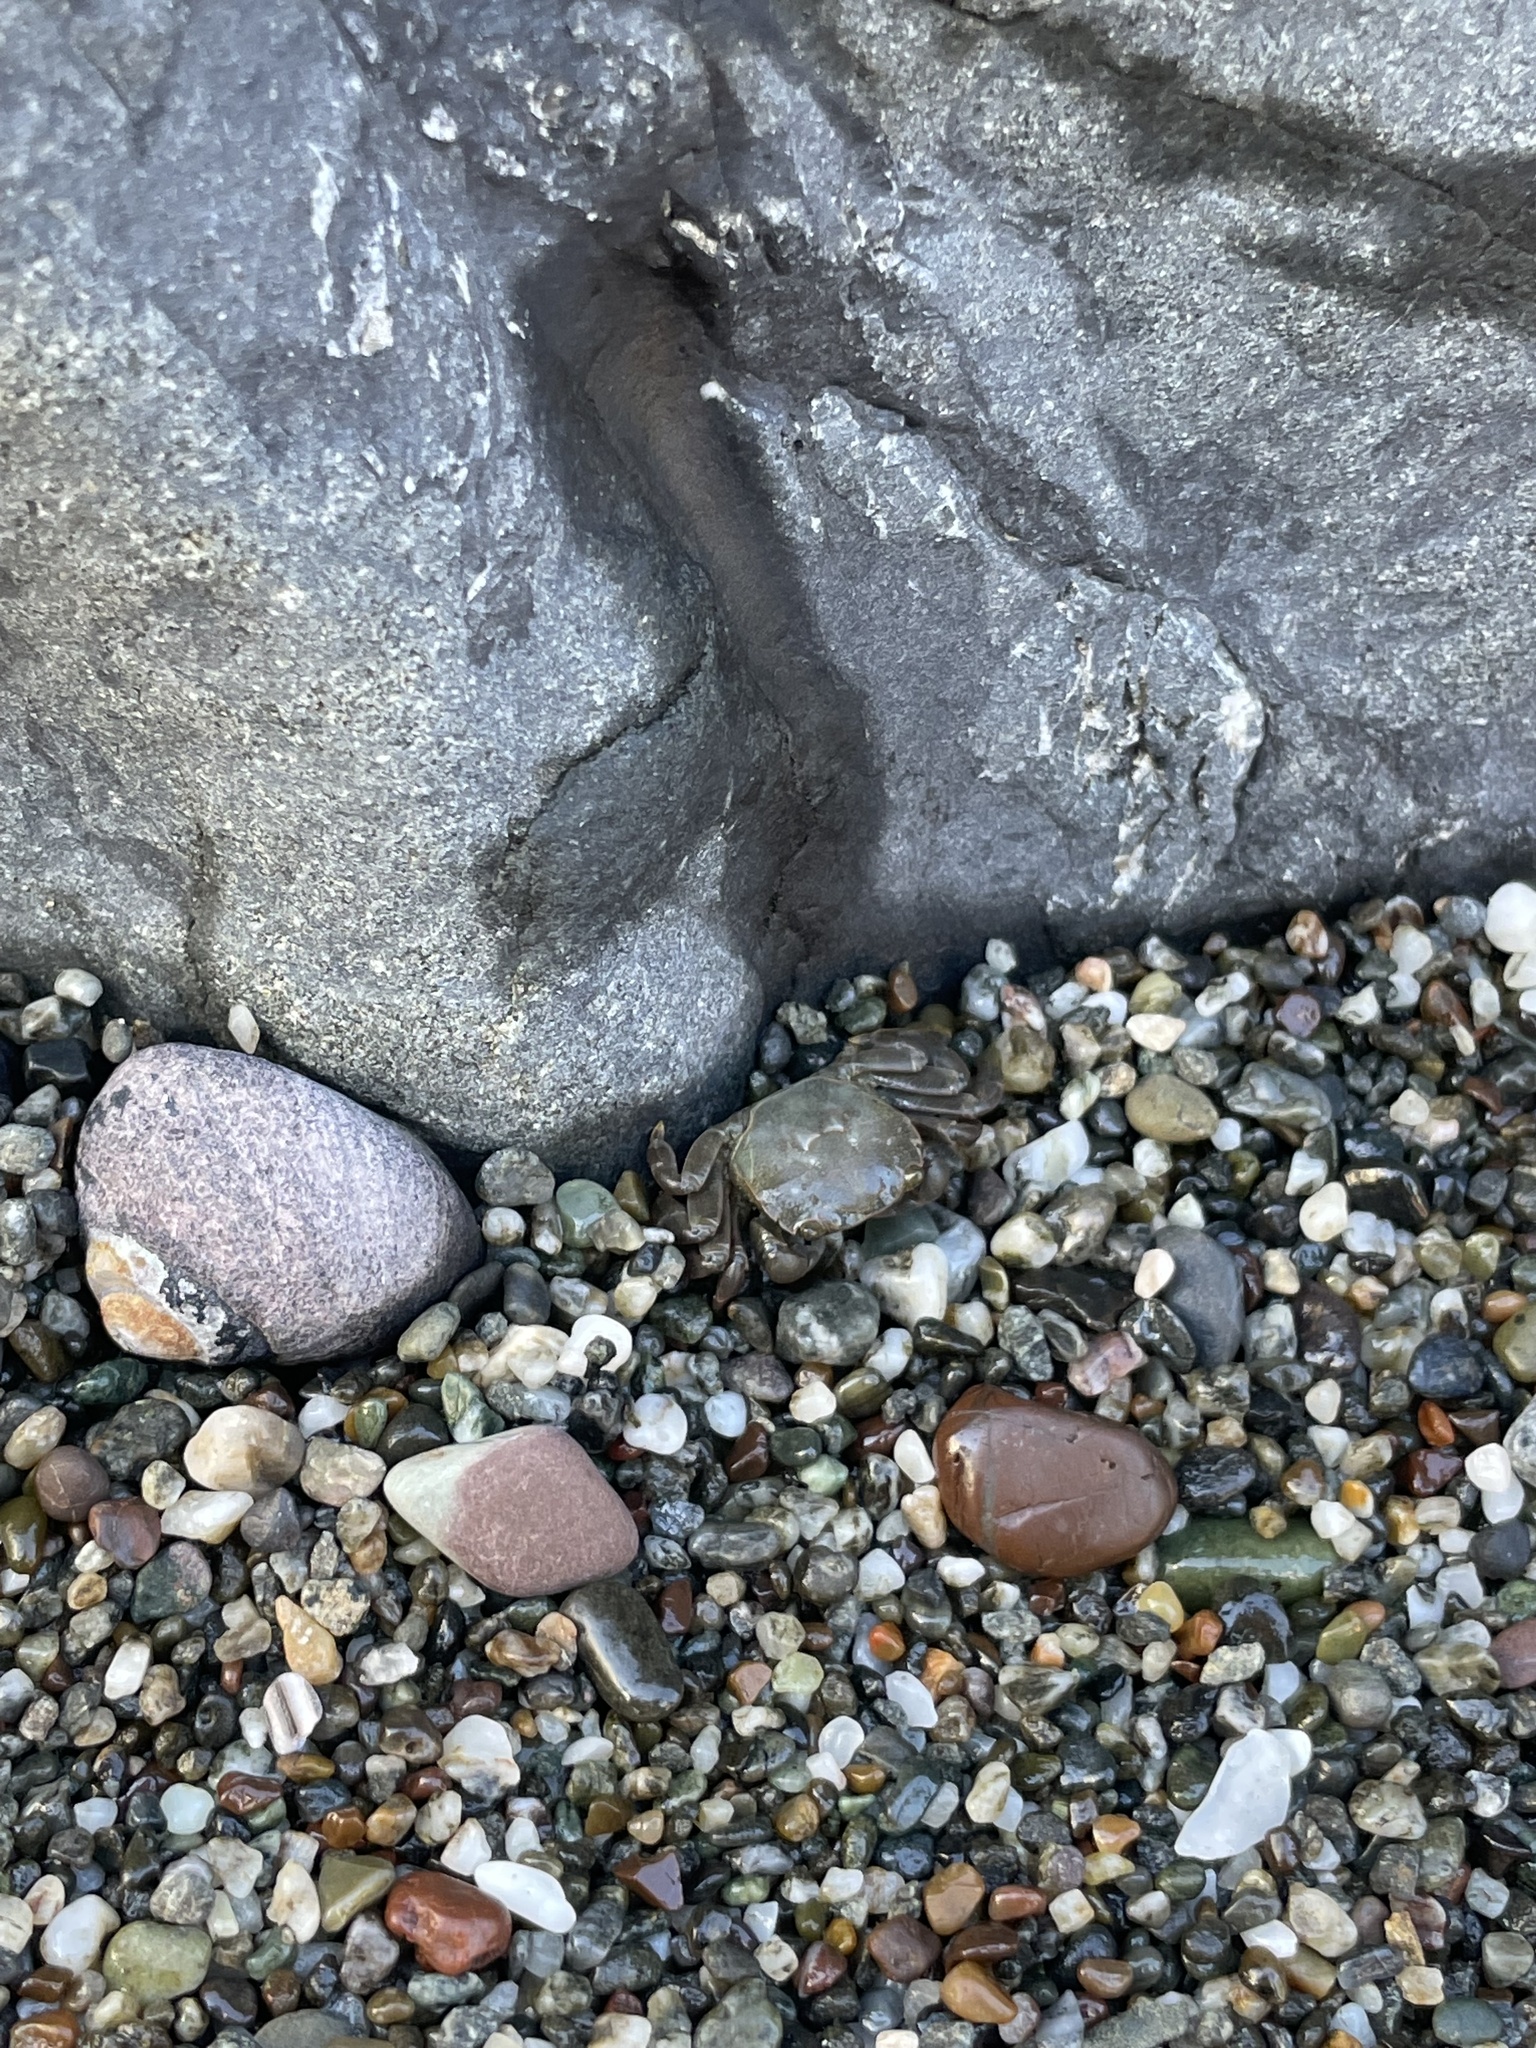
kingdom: Animalia
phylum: Arthropoda
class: Malacostraca
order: Decapoda
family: Varunidae
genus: Hemigrapsus
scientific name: Hemigrapsus nudus
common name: Purple shore crab
